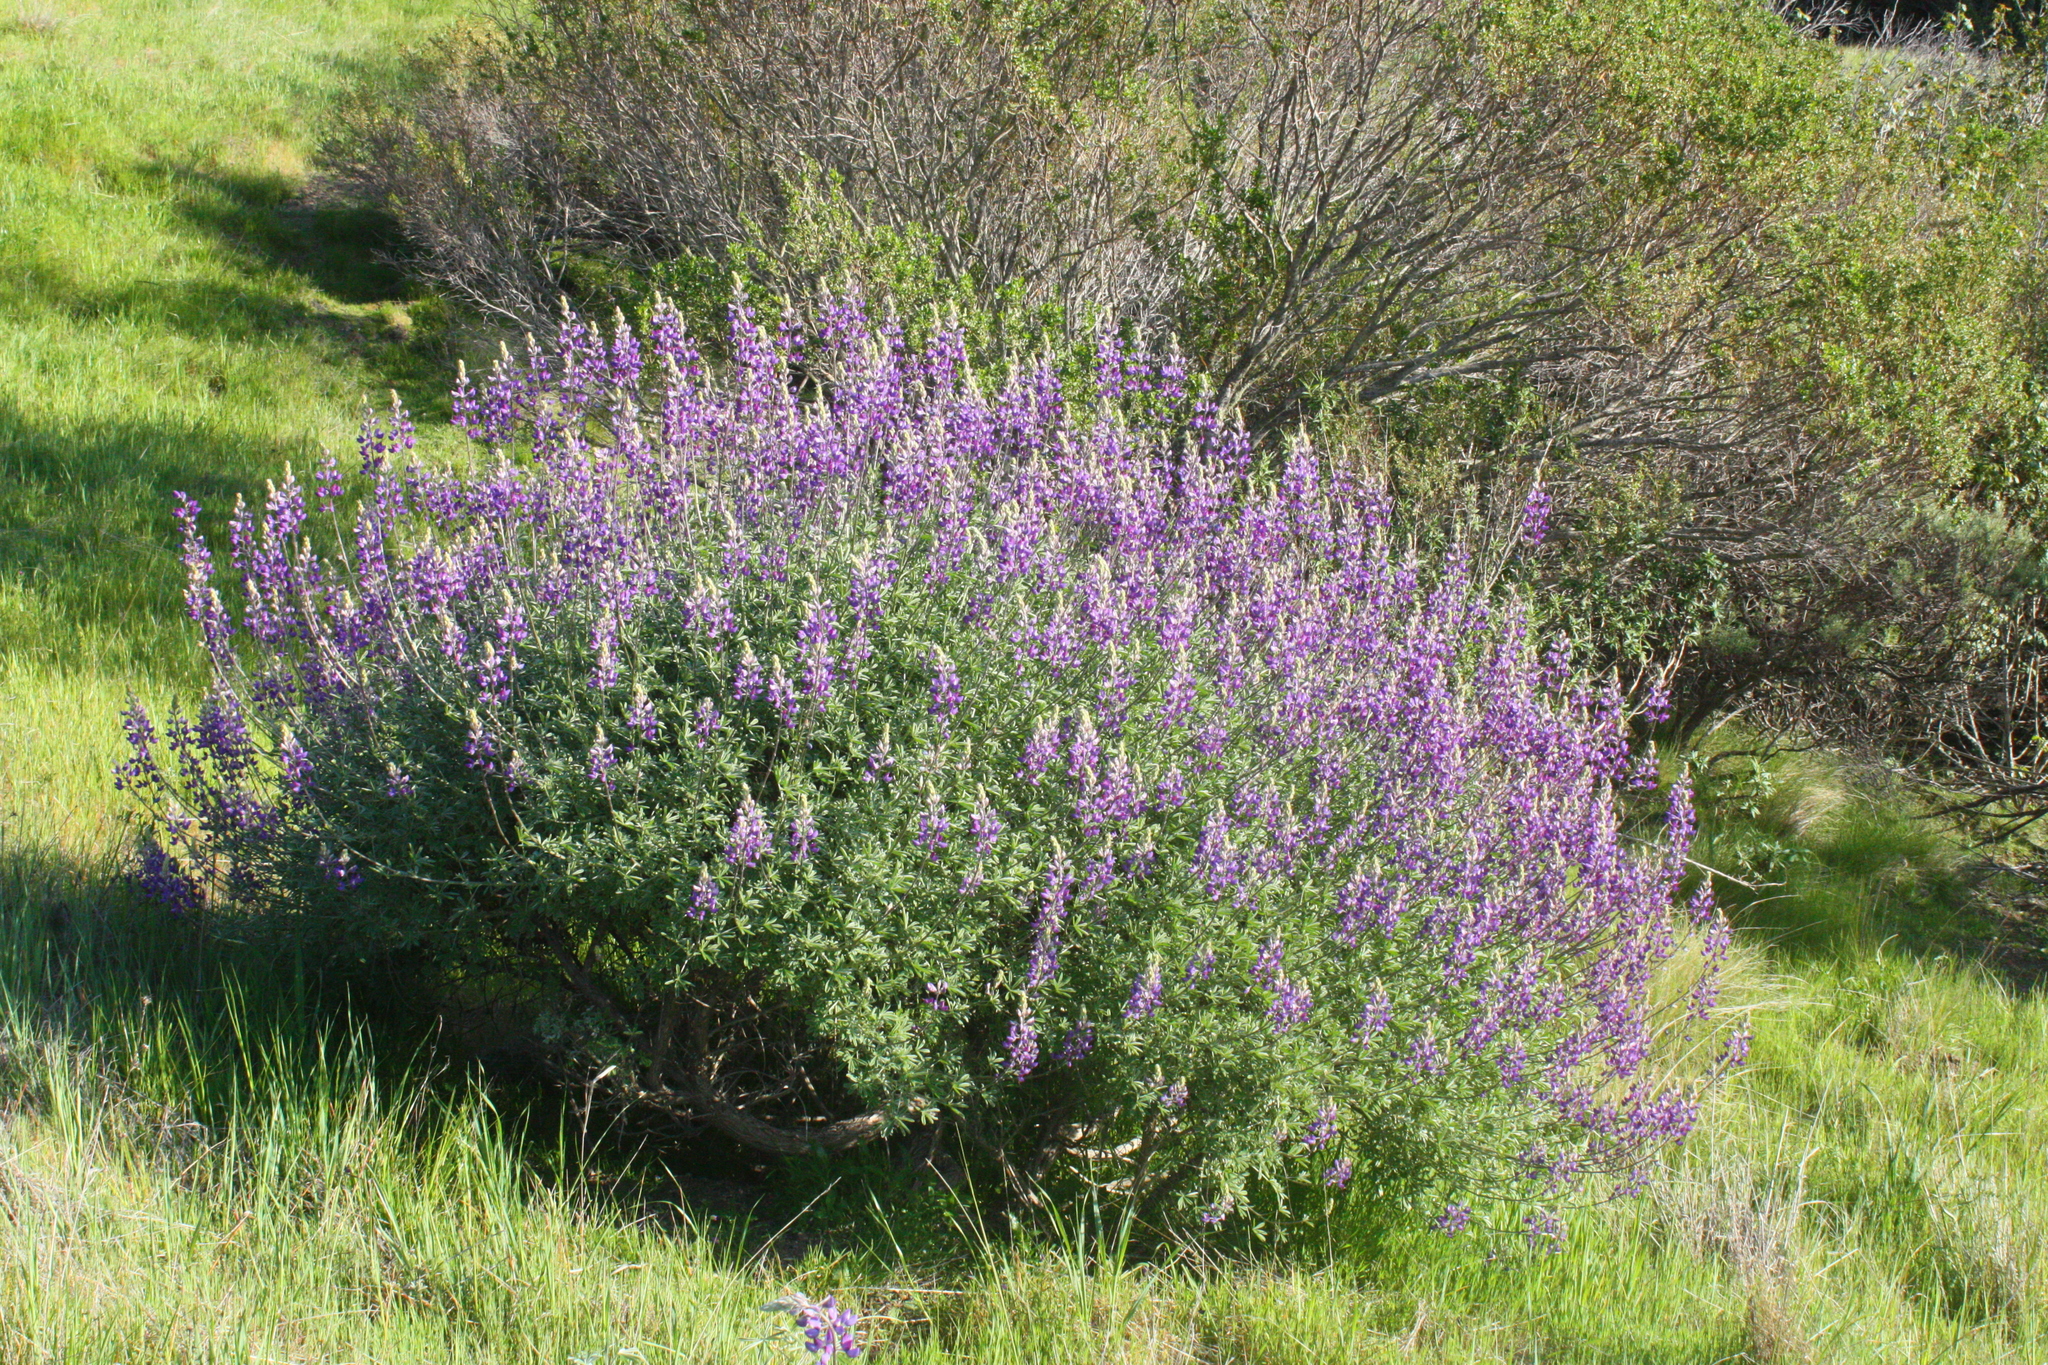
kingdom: Plantae
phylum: Tracheophyta
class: Magnoliopsida
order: Fabales
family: Fabaceae
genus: Lupinus
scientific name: Lupinus albifrons
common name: Foothill lupine
